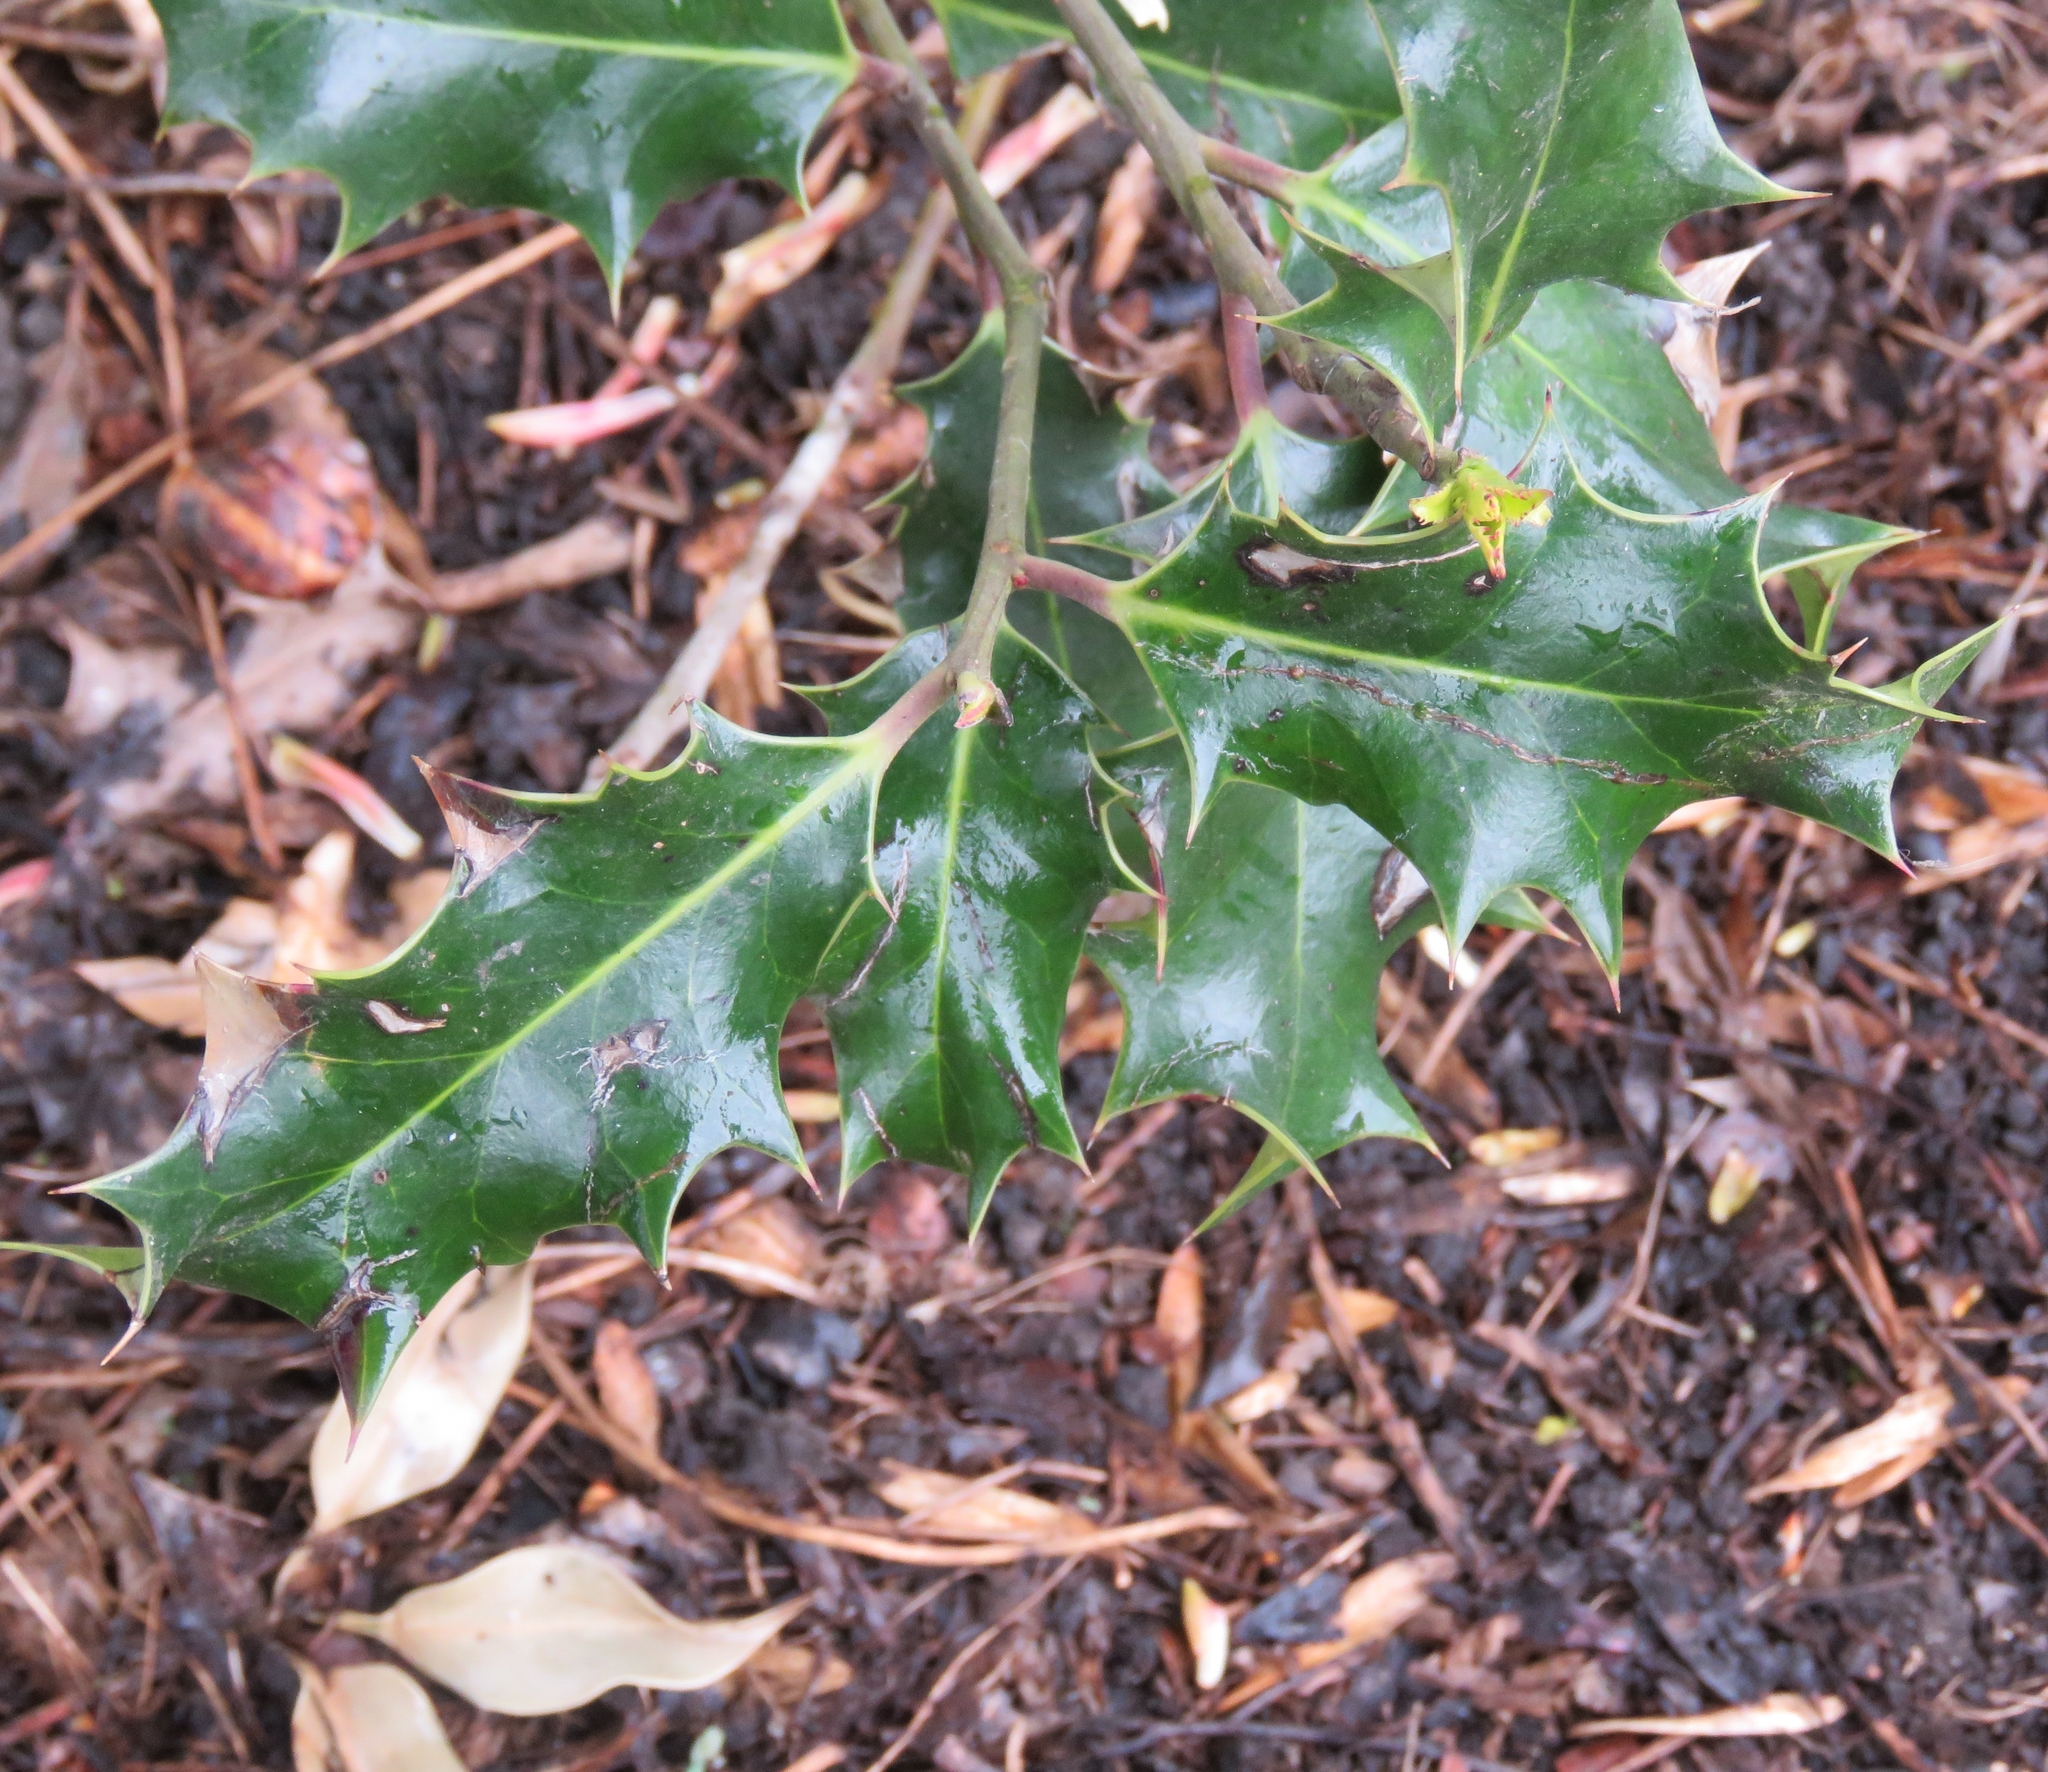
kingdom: Plantae
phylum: Tracheophyta
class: Magnoliopsida
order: Aquifoliales
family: Aquifoliaceae
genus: Ilex
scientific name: Ilex aquifolium
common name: English holly
